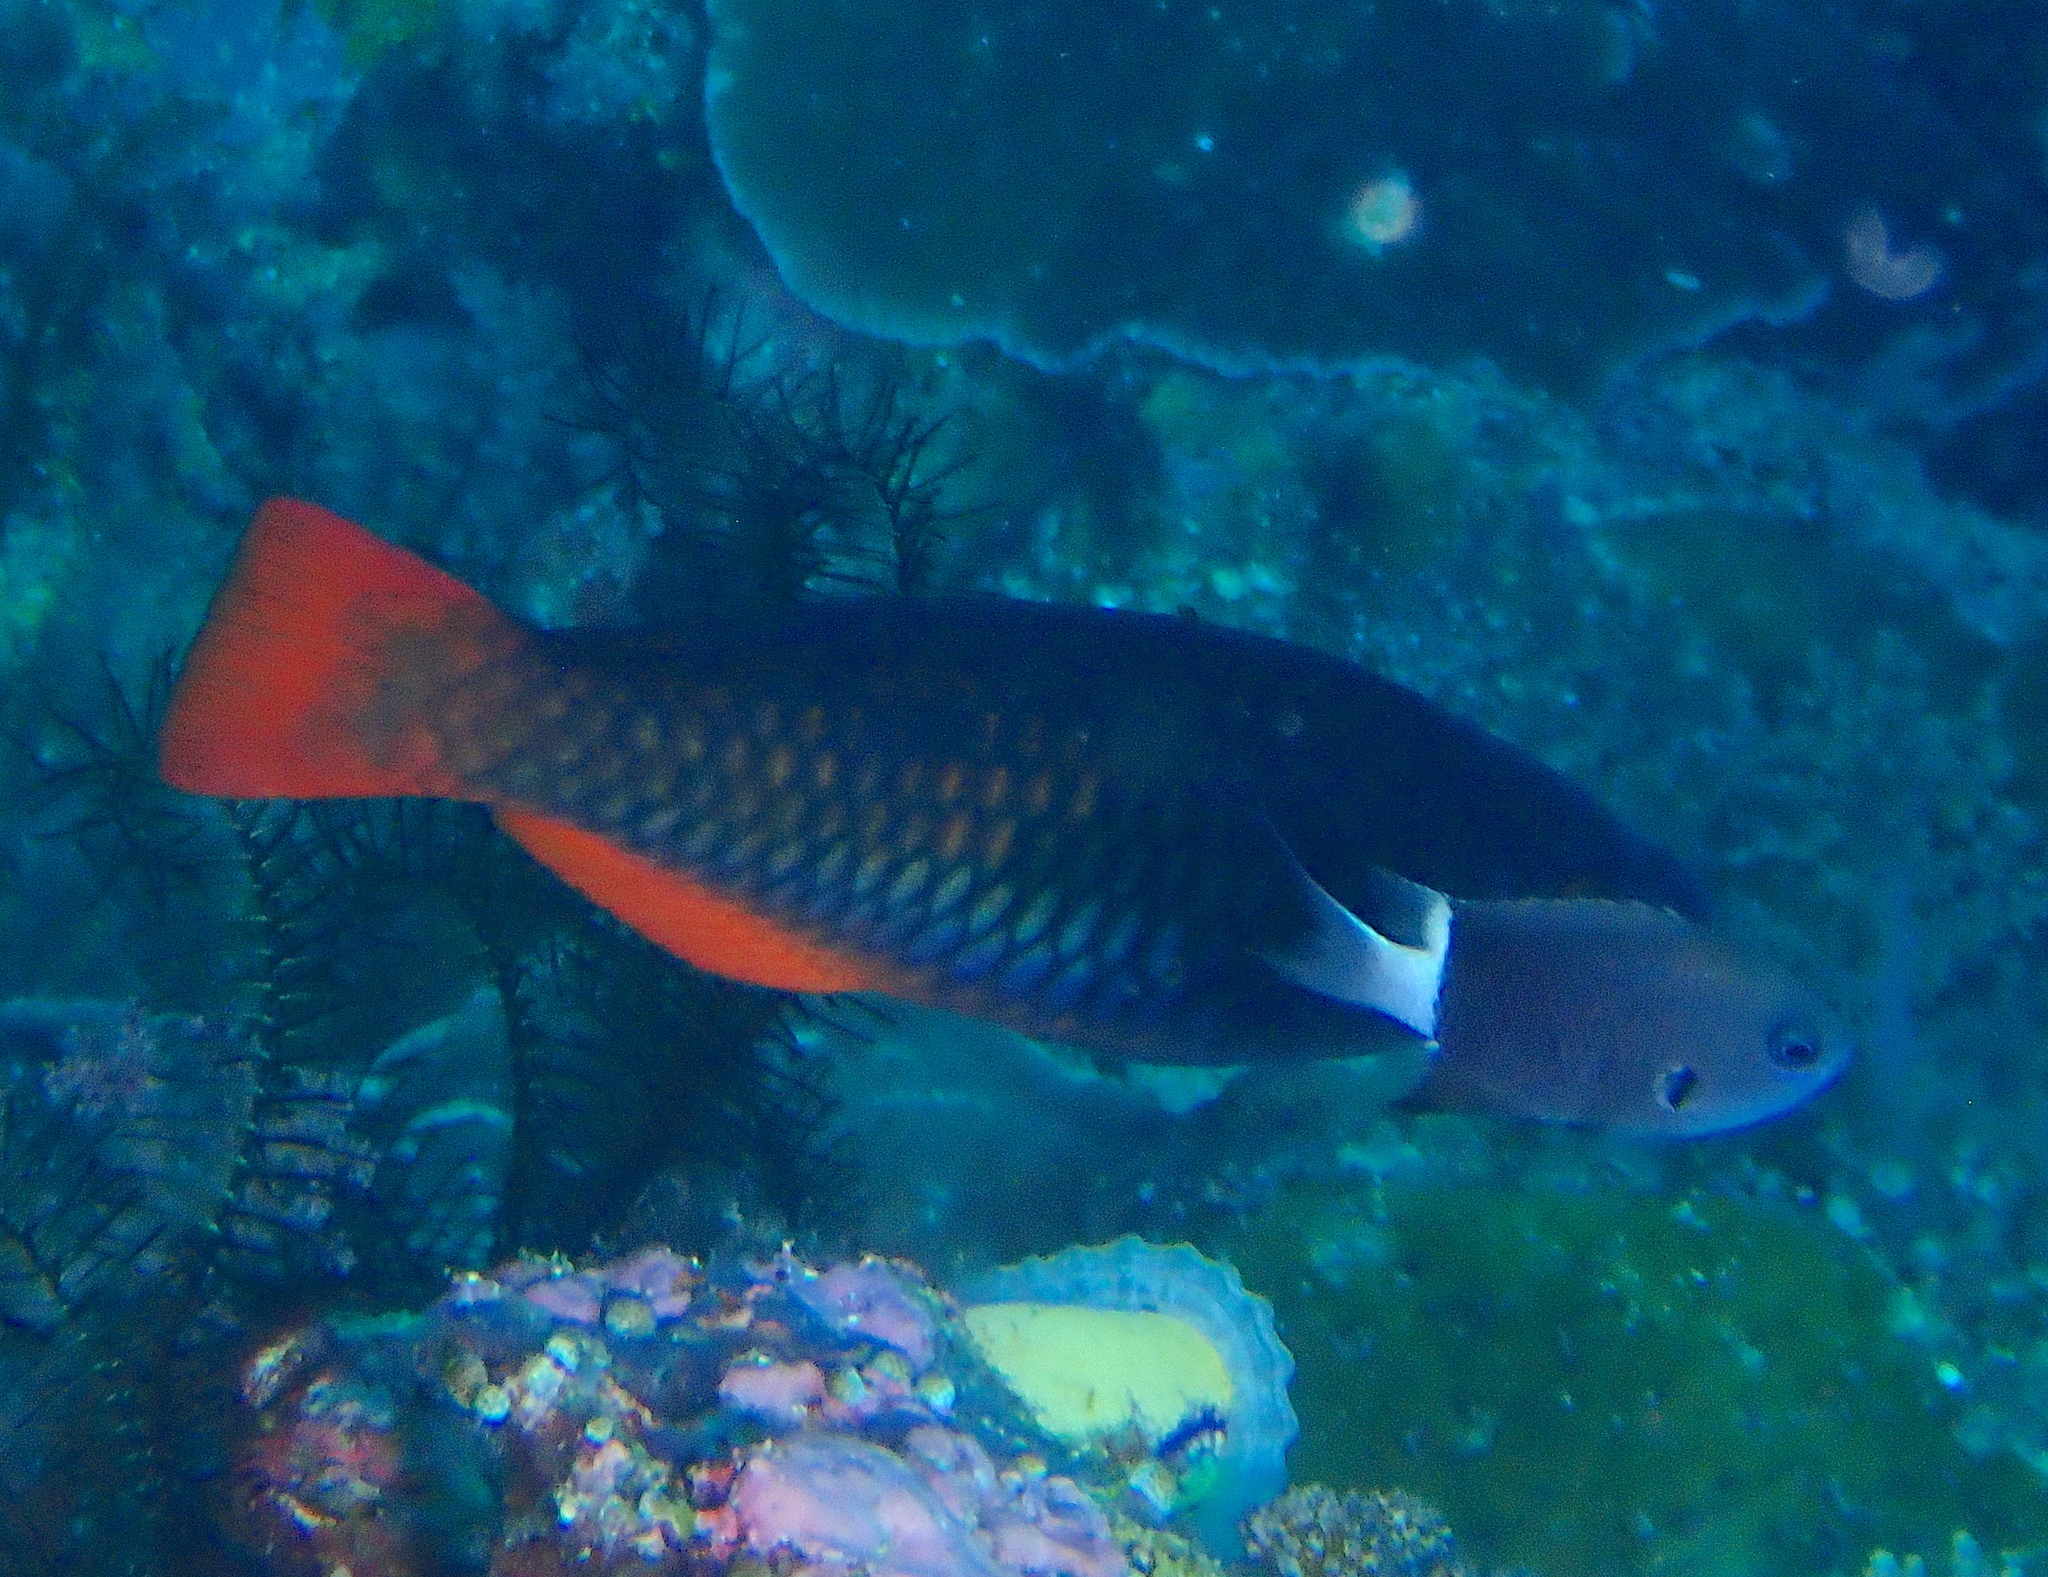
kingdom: Animalia
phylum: Chordata
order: Perciformes
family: Scaridae
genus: Scarus
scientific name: Scarus tricolor
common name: Tricolour parrotfish
